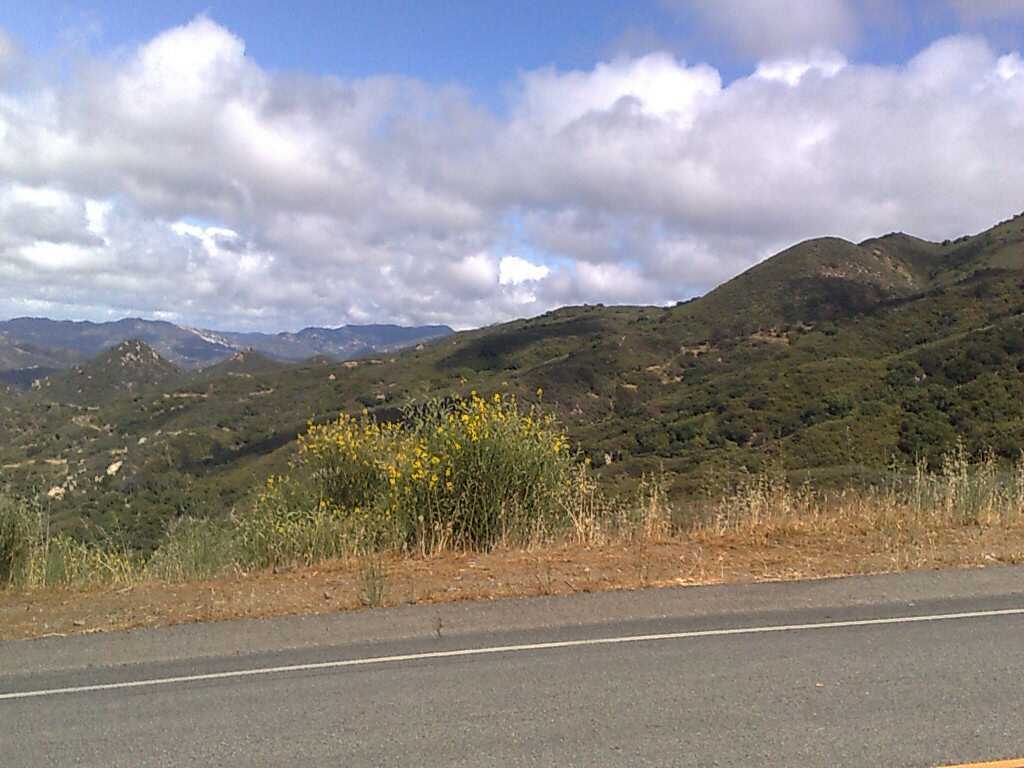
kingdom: Plantae
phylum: Tracheophyta
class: Magnoliopsida
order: Fabales
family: Fabaceae
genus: Spartium
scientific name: Spartium junceum
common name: Spanish broom
